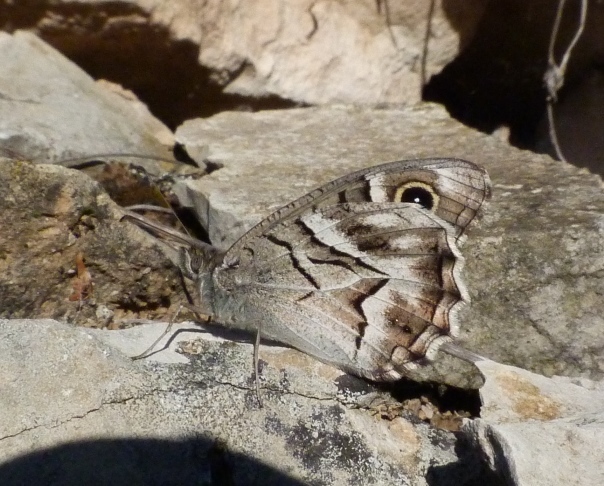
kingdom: Animalia
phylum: Arthropoda
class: Insecta
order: Lepidoptera
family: Nymphalidae
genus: Hipparchia
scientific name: Hipparchia fidia
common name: Striped grayling
